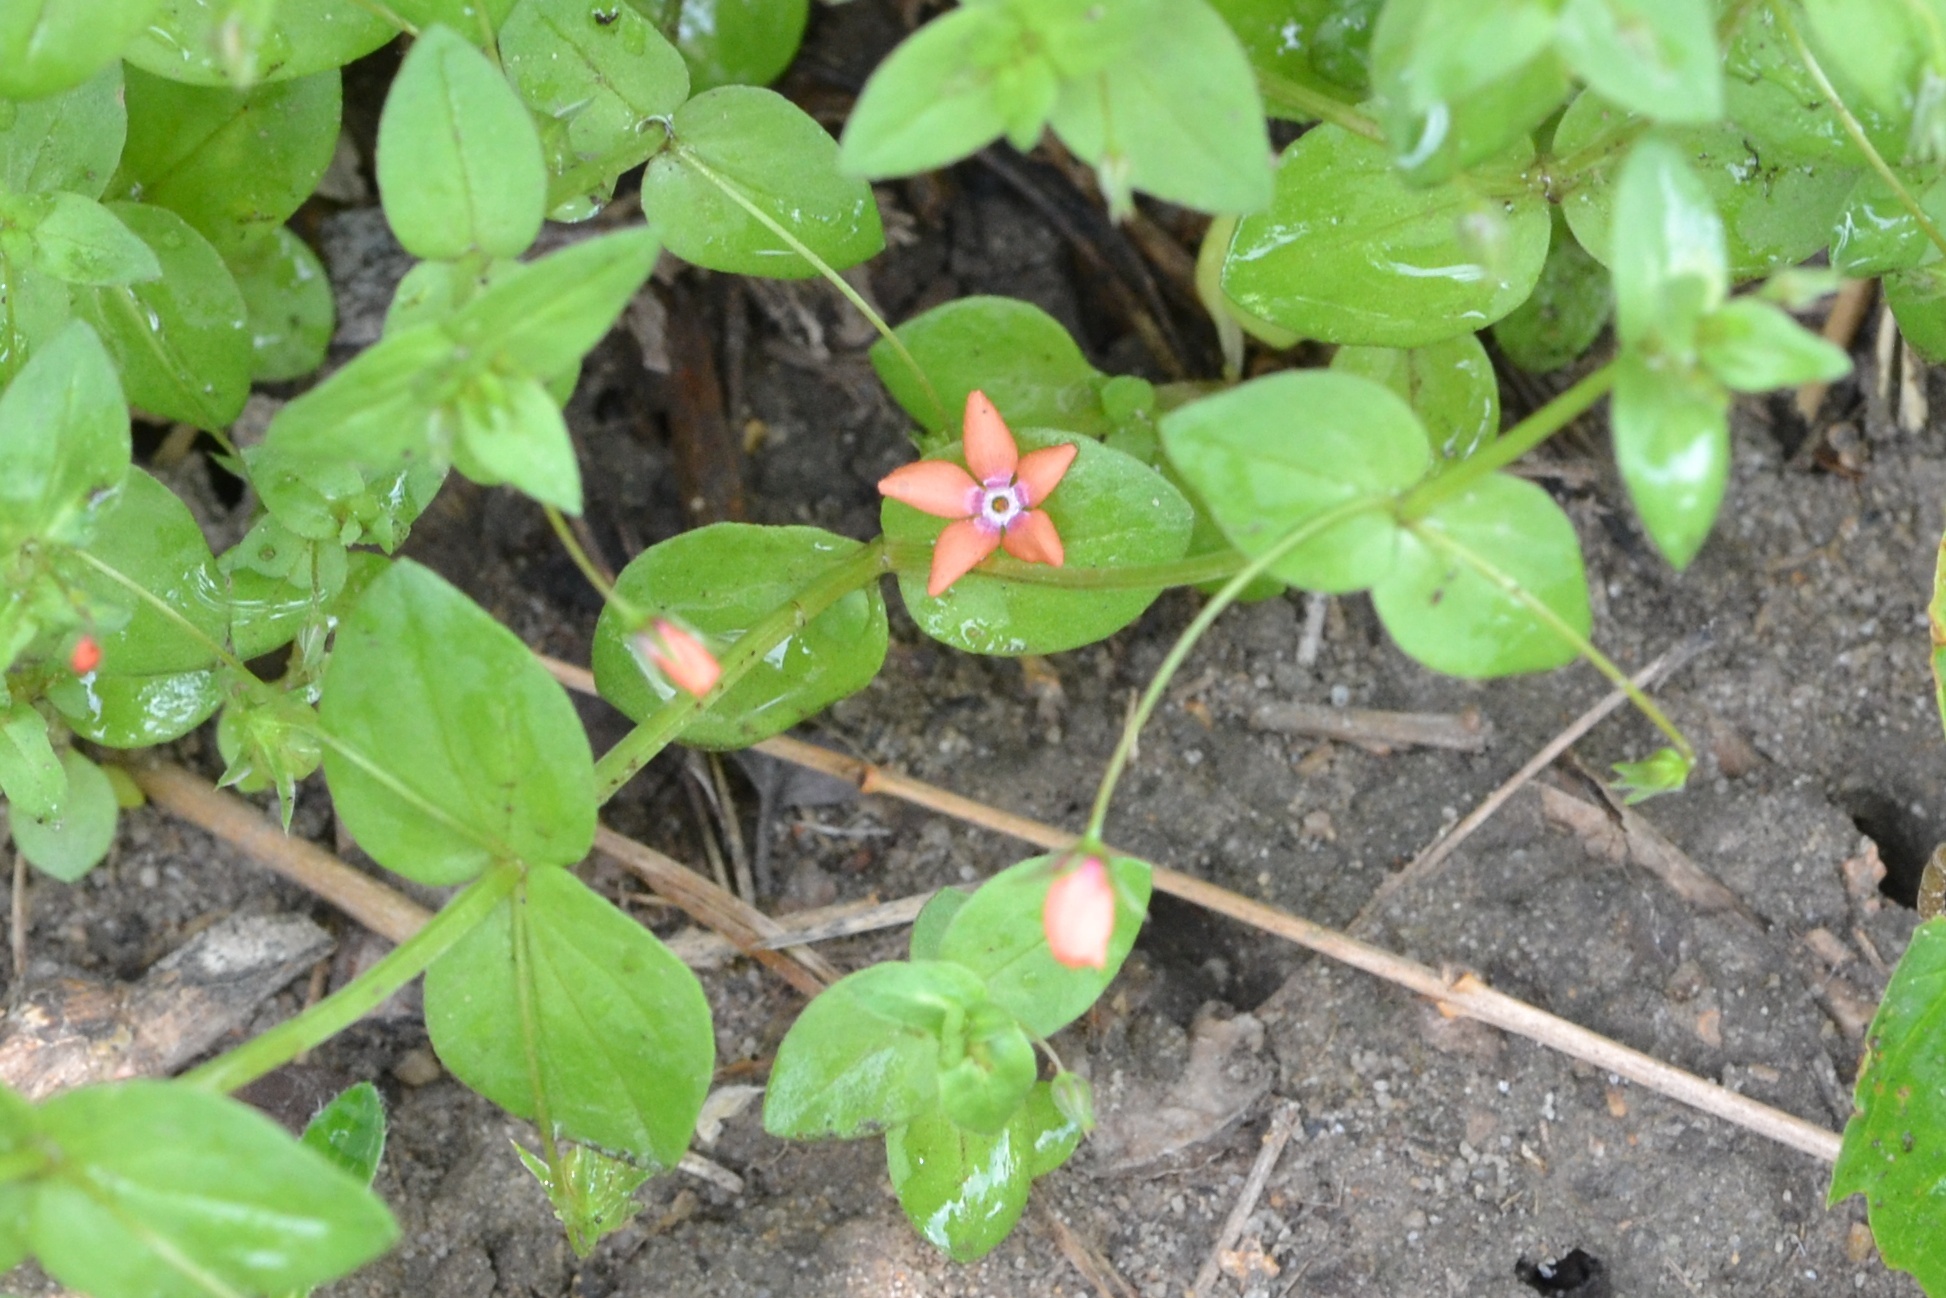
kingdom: Plantae
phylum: Tracheophyta
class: Magnoliopsida
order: Ericales
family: Primulaceae
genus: Lysimachia
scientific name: Lysimachia arvensis
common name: Scarlet pimpernel
